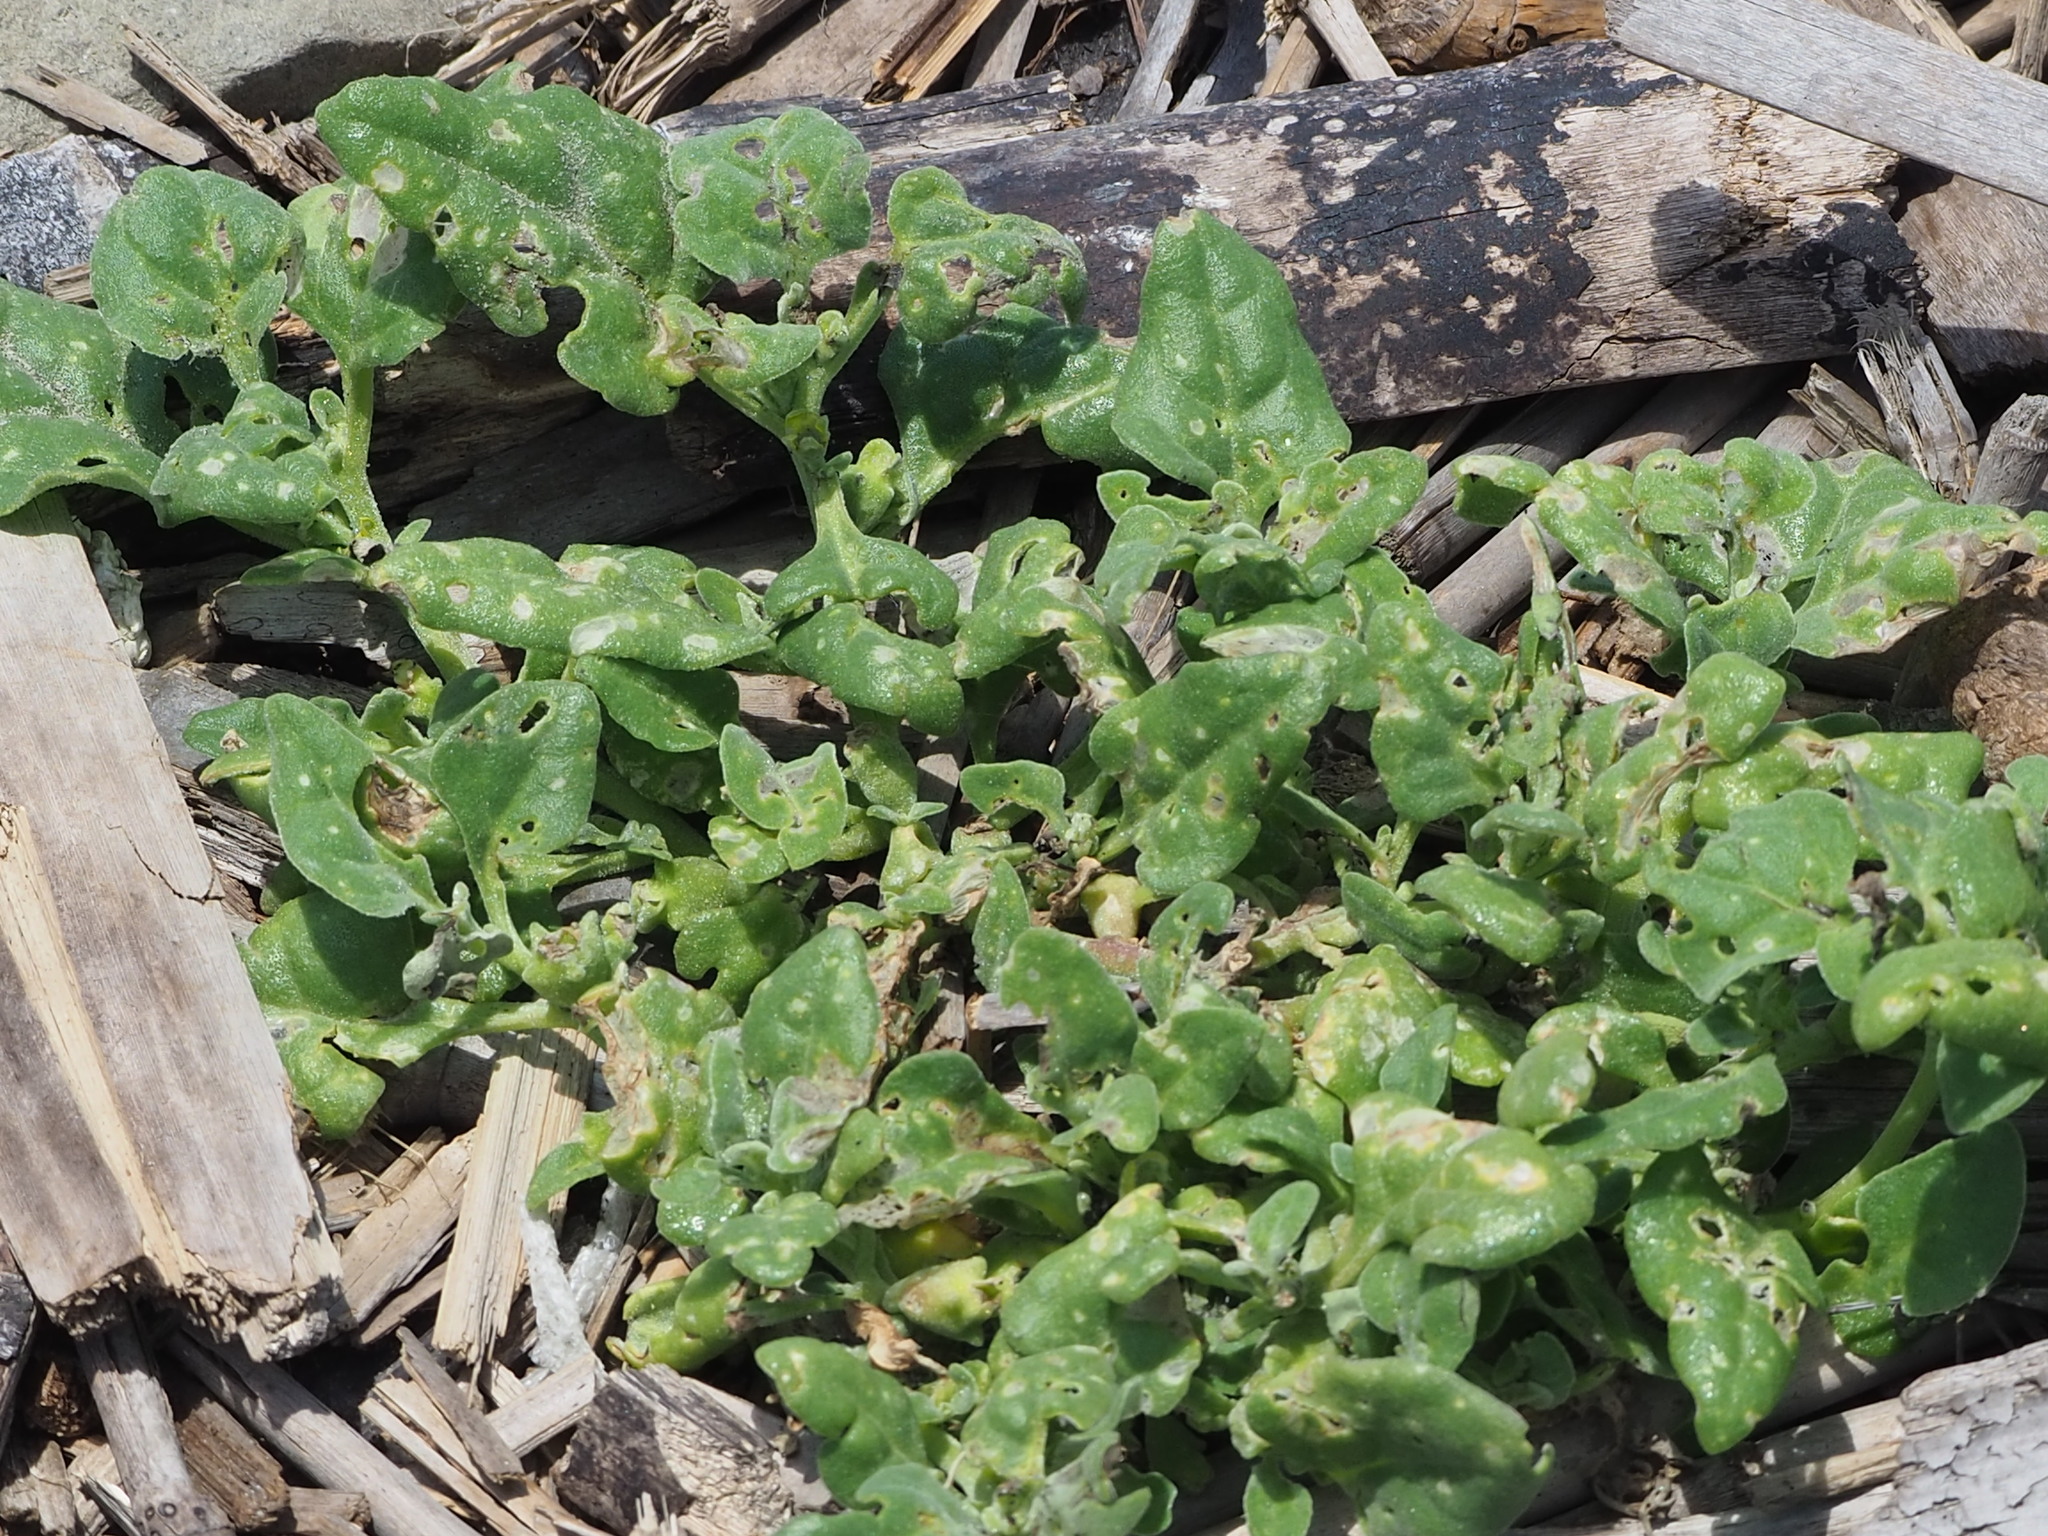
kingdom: Plantae
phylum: Tracheophyta
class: Magnoliopsida
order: Caryophyllales
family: Aizoaceae
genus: Tetragonia
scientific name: Tetragonia tetragonoides
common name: New zealand-spinach
